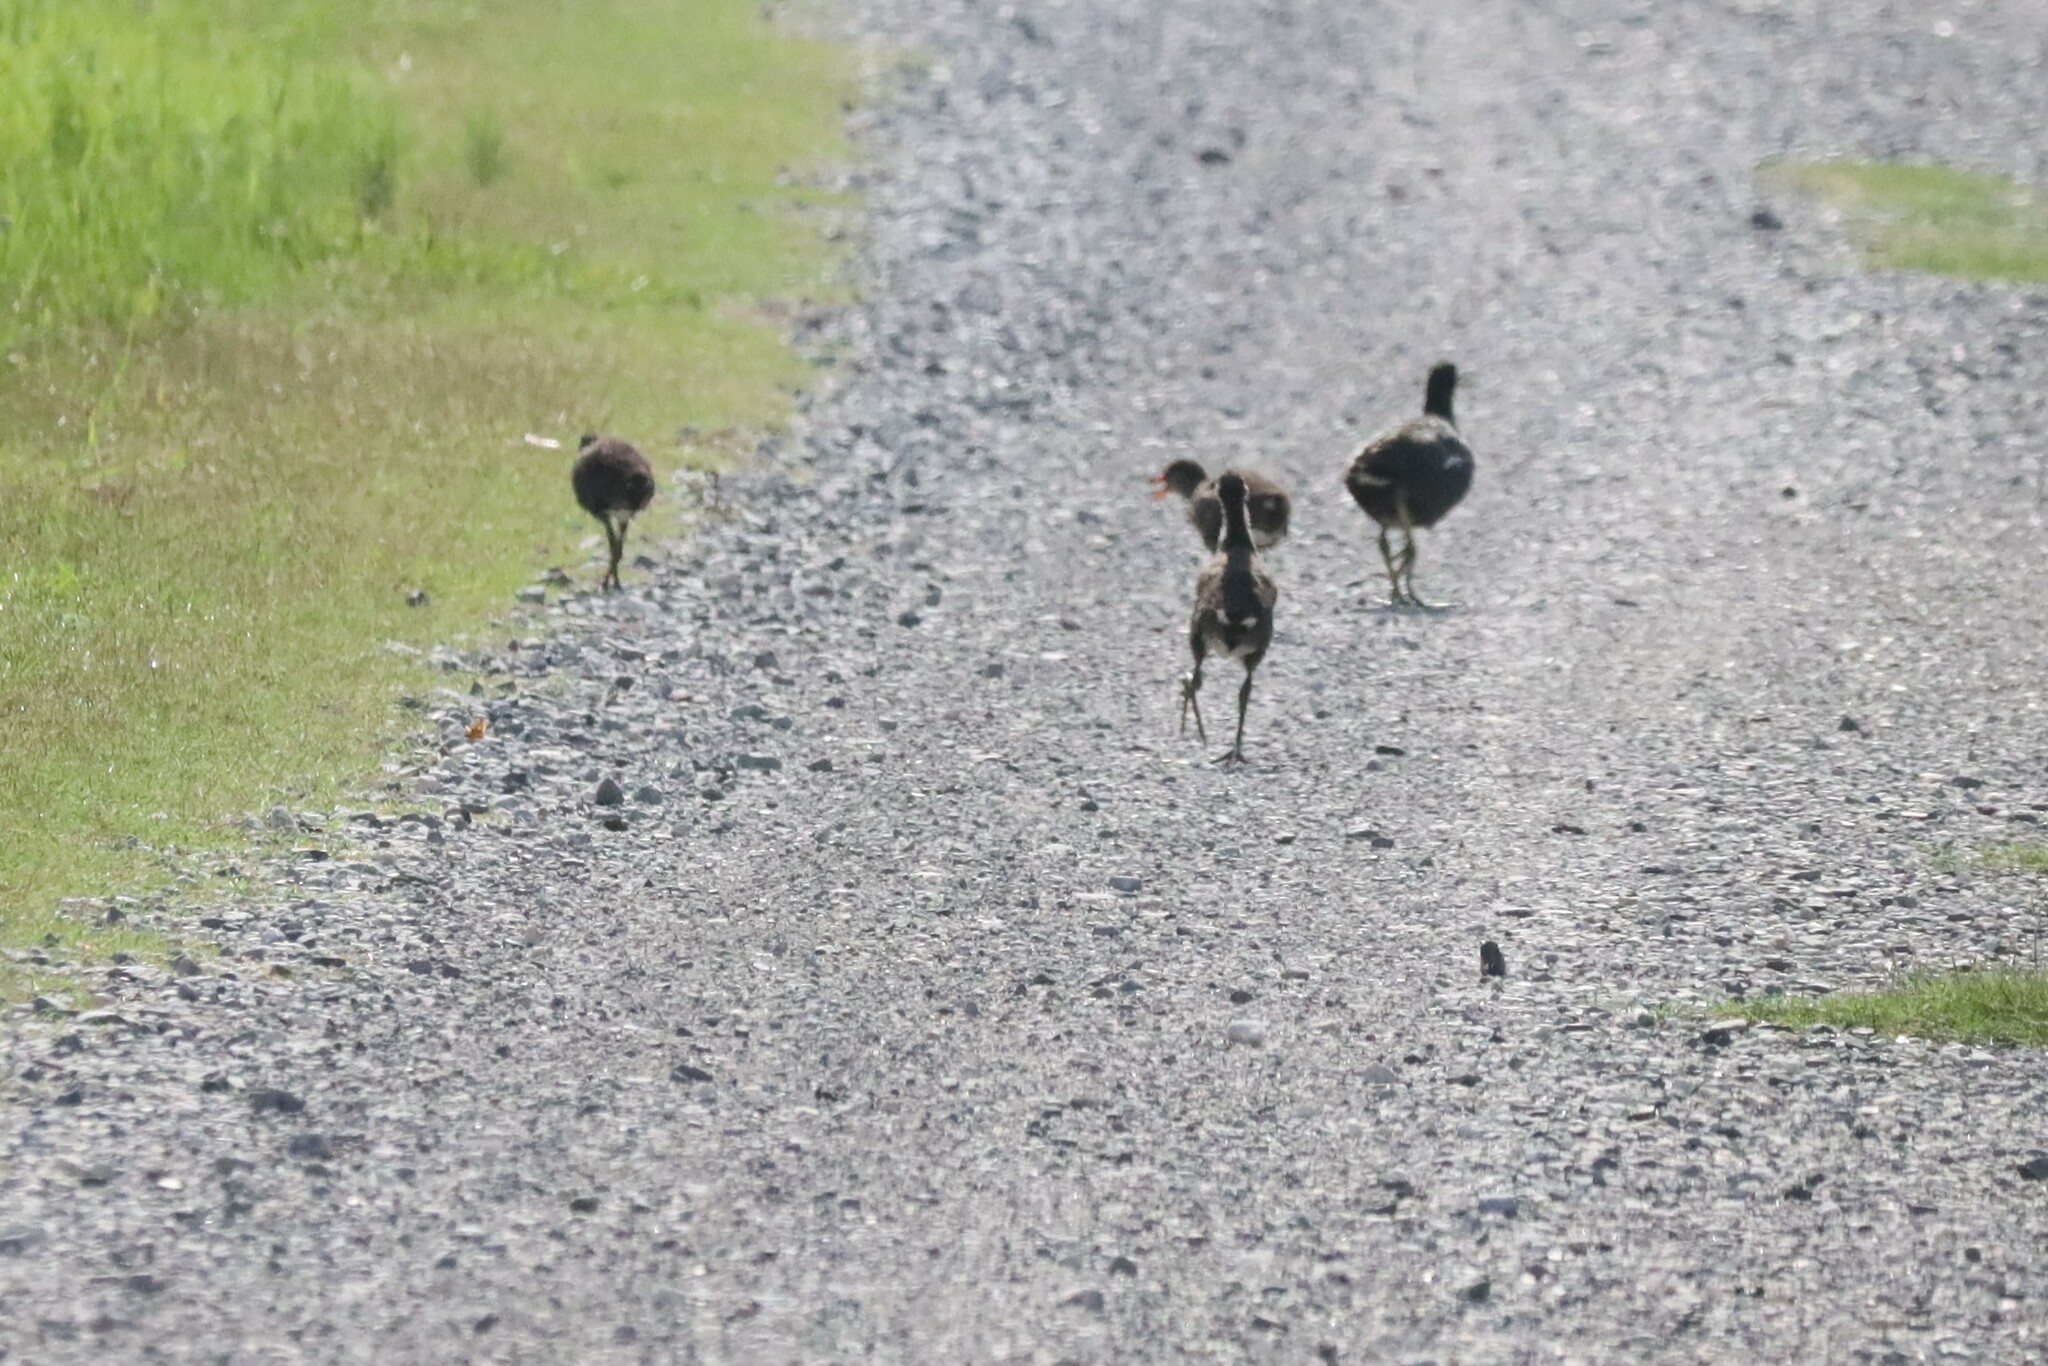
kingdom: Animalia
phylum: Chordata
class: Aves
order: Gruiformes
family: Rallidae
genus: Gallinula
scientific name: Gallinula chloropus
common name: Common moorhen
